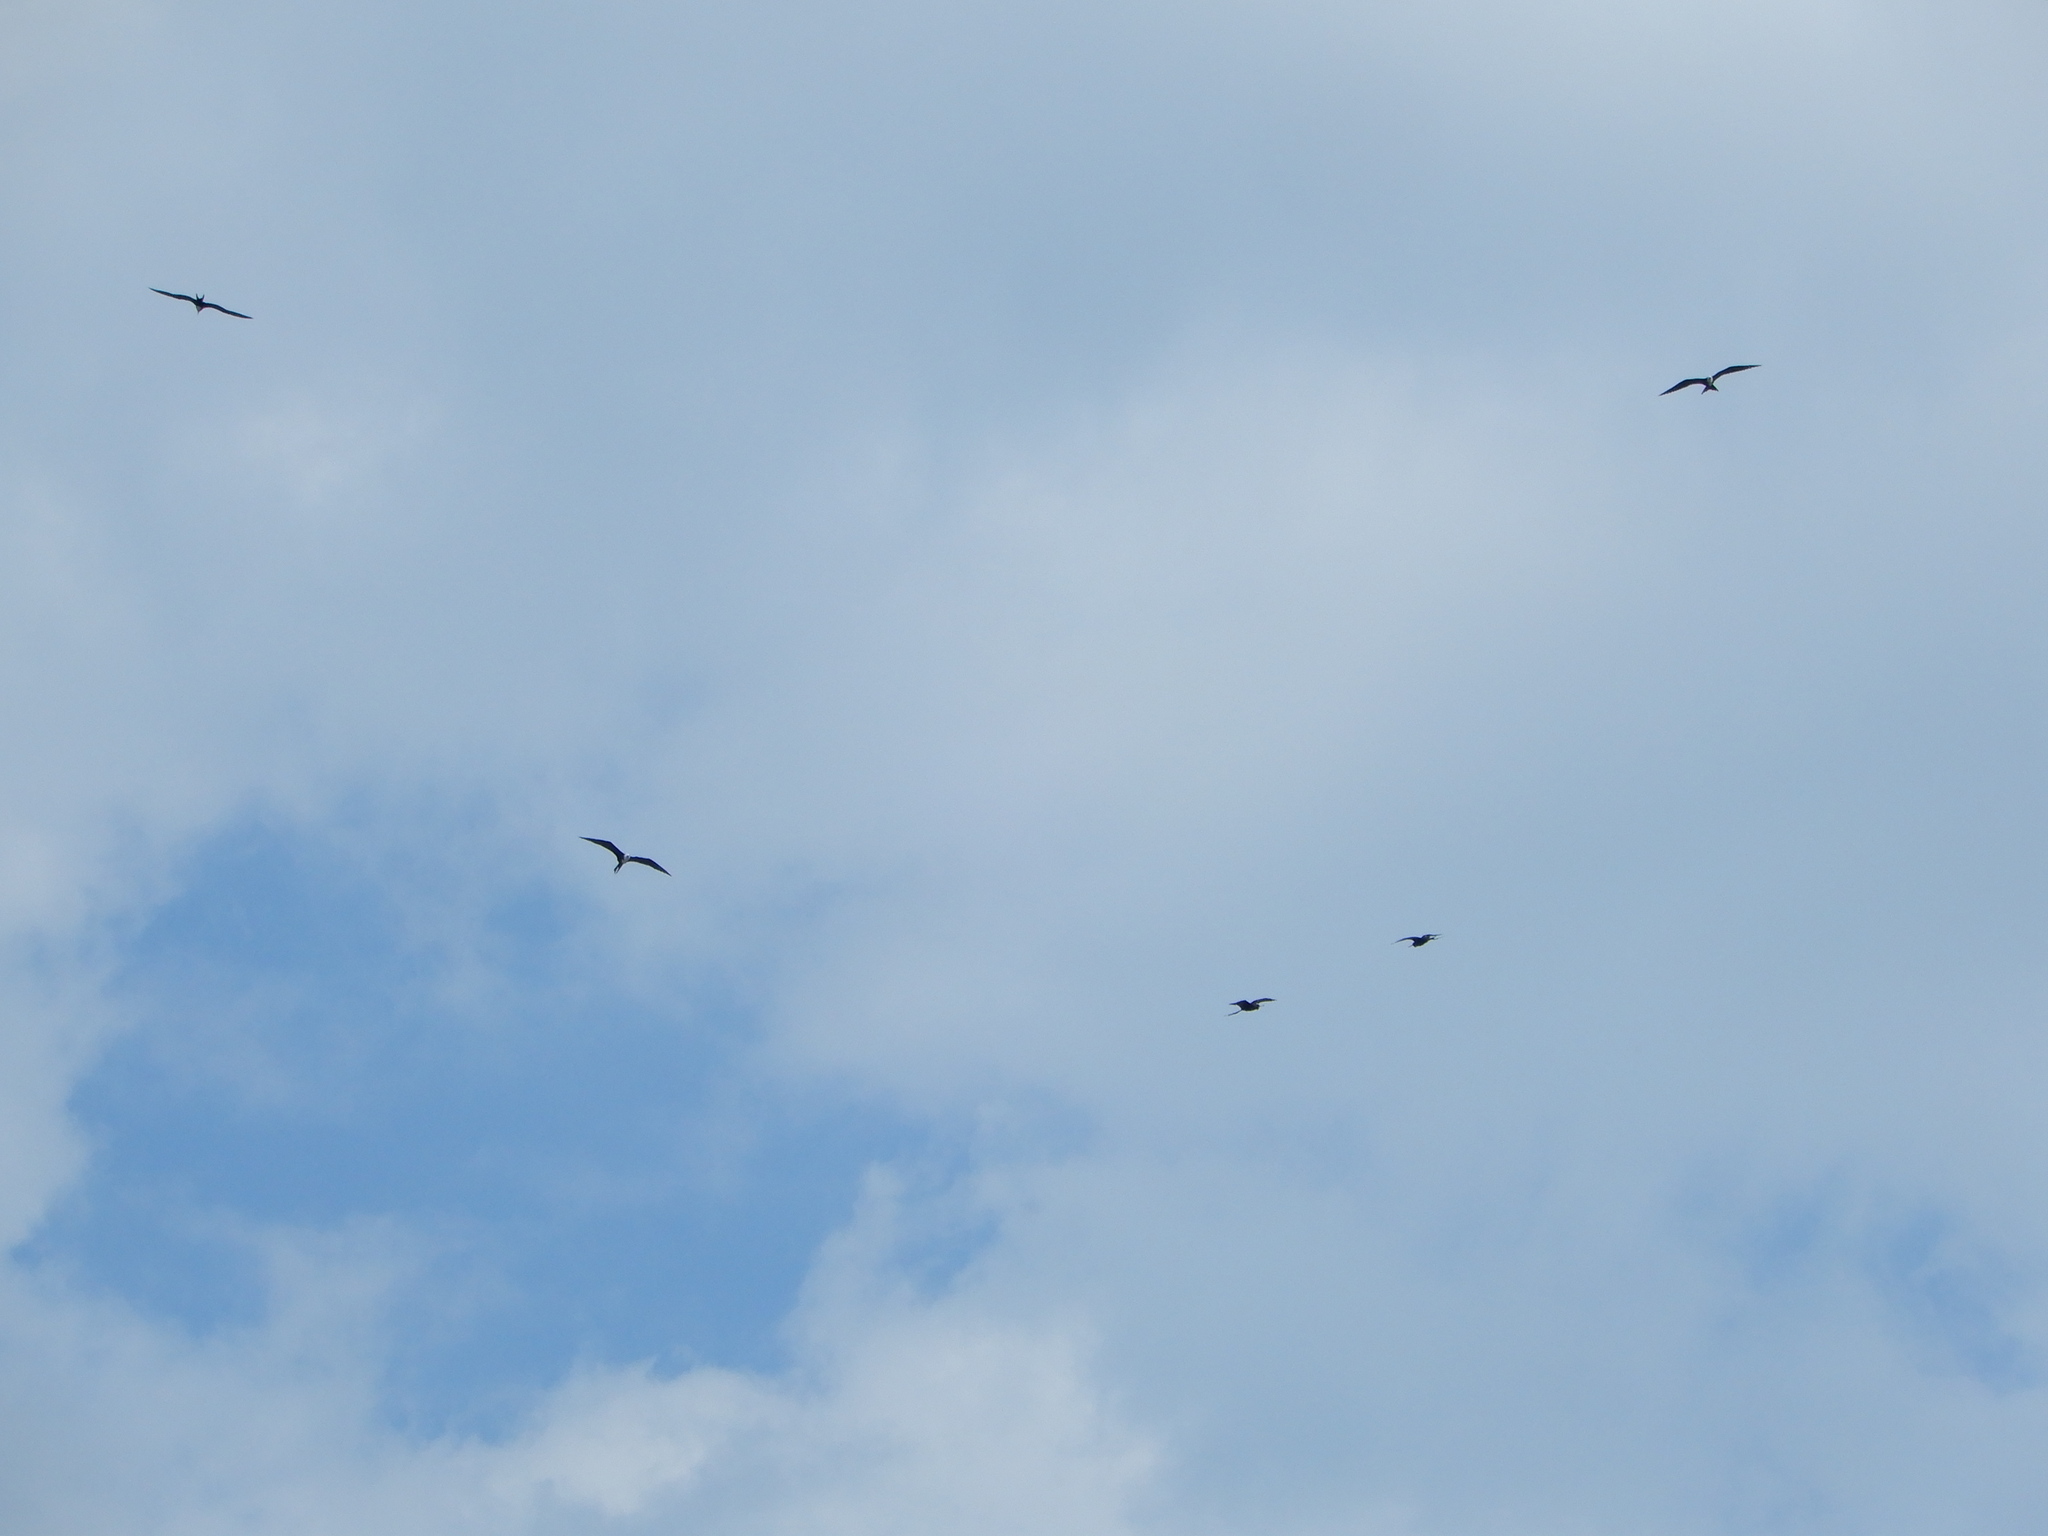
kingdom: Animalia
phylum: Chordata
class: Aves
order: Suliformes
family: Fregatidae
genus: Fregata
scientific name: Fregata magnificens
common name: Magnificent frigatebird
